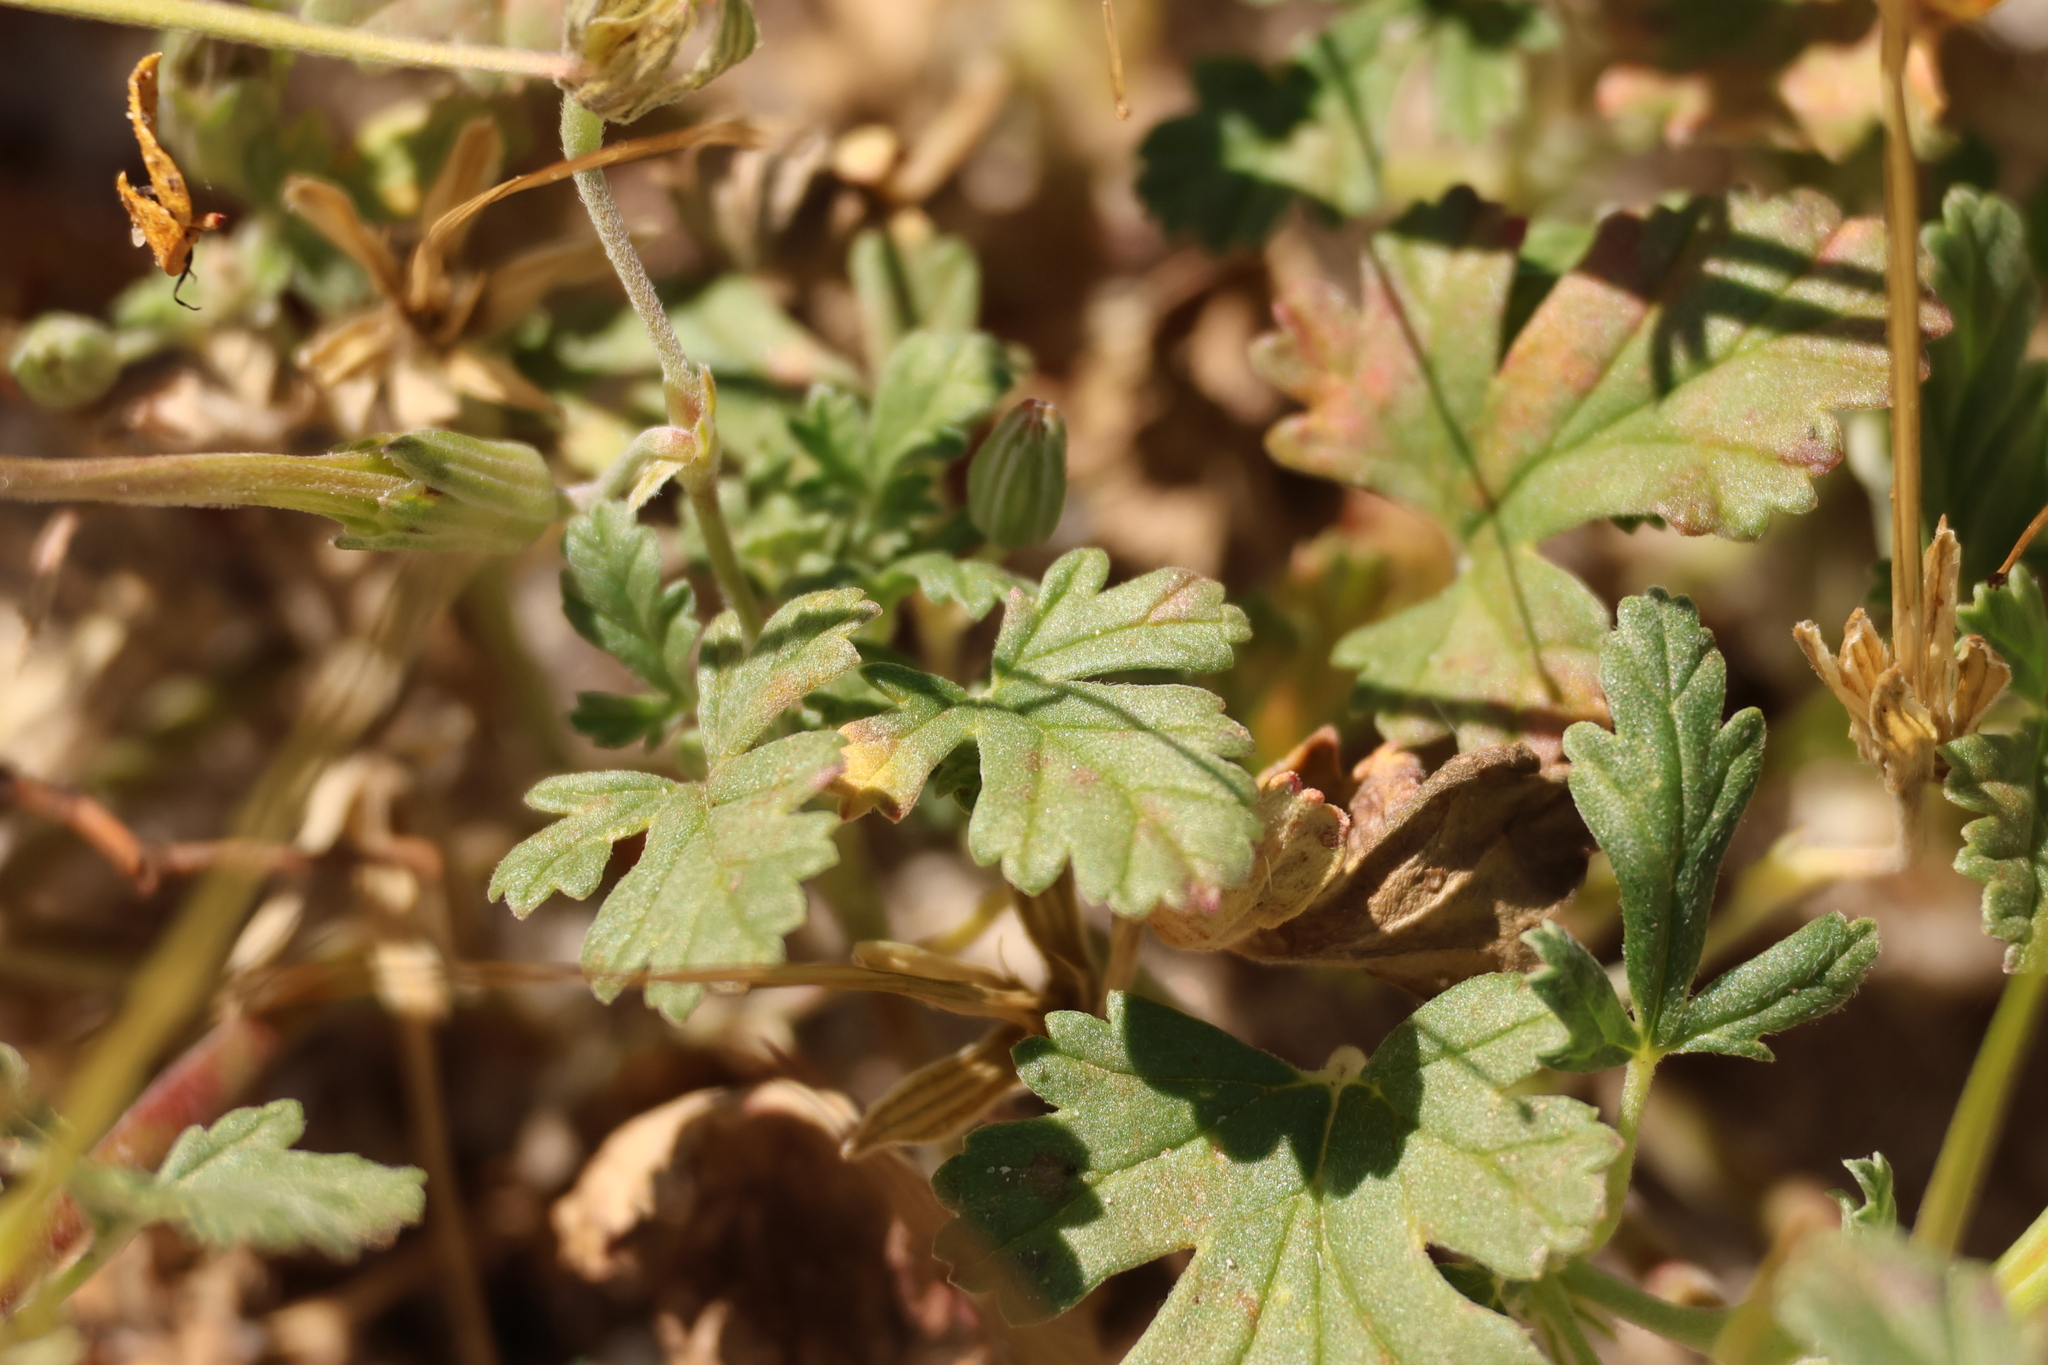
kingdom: Plantae
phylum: Tracheophyta
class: Magnoliopsida
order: Geraniales
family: Geraniaceae
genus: Erodium
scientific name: Erodium texanum
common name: Texas stork's-bill
